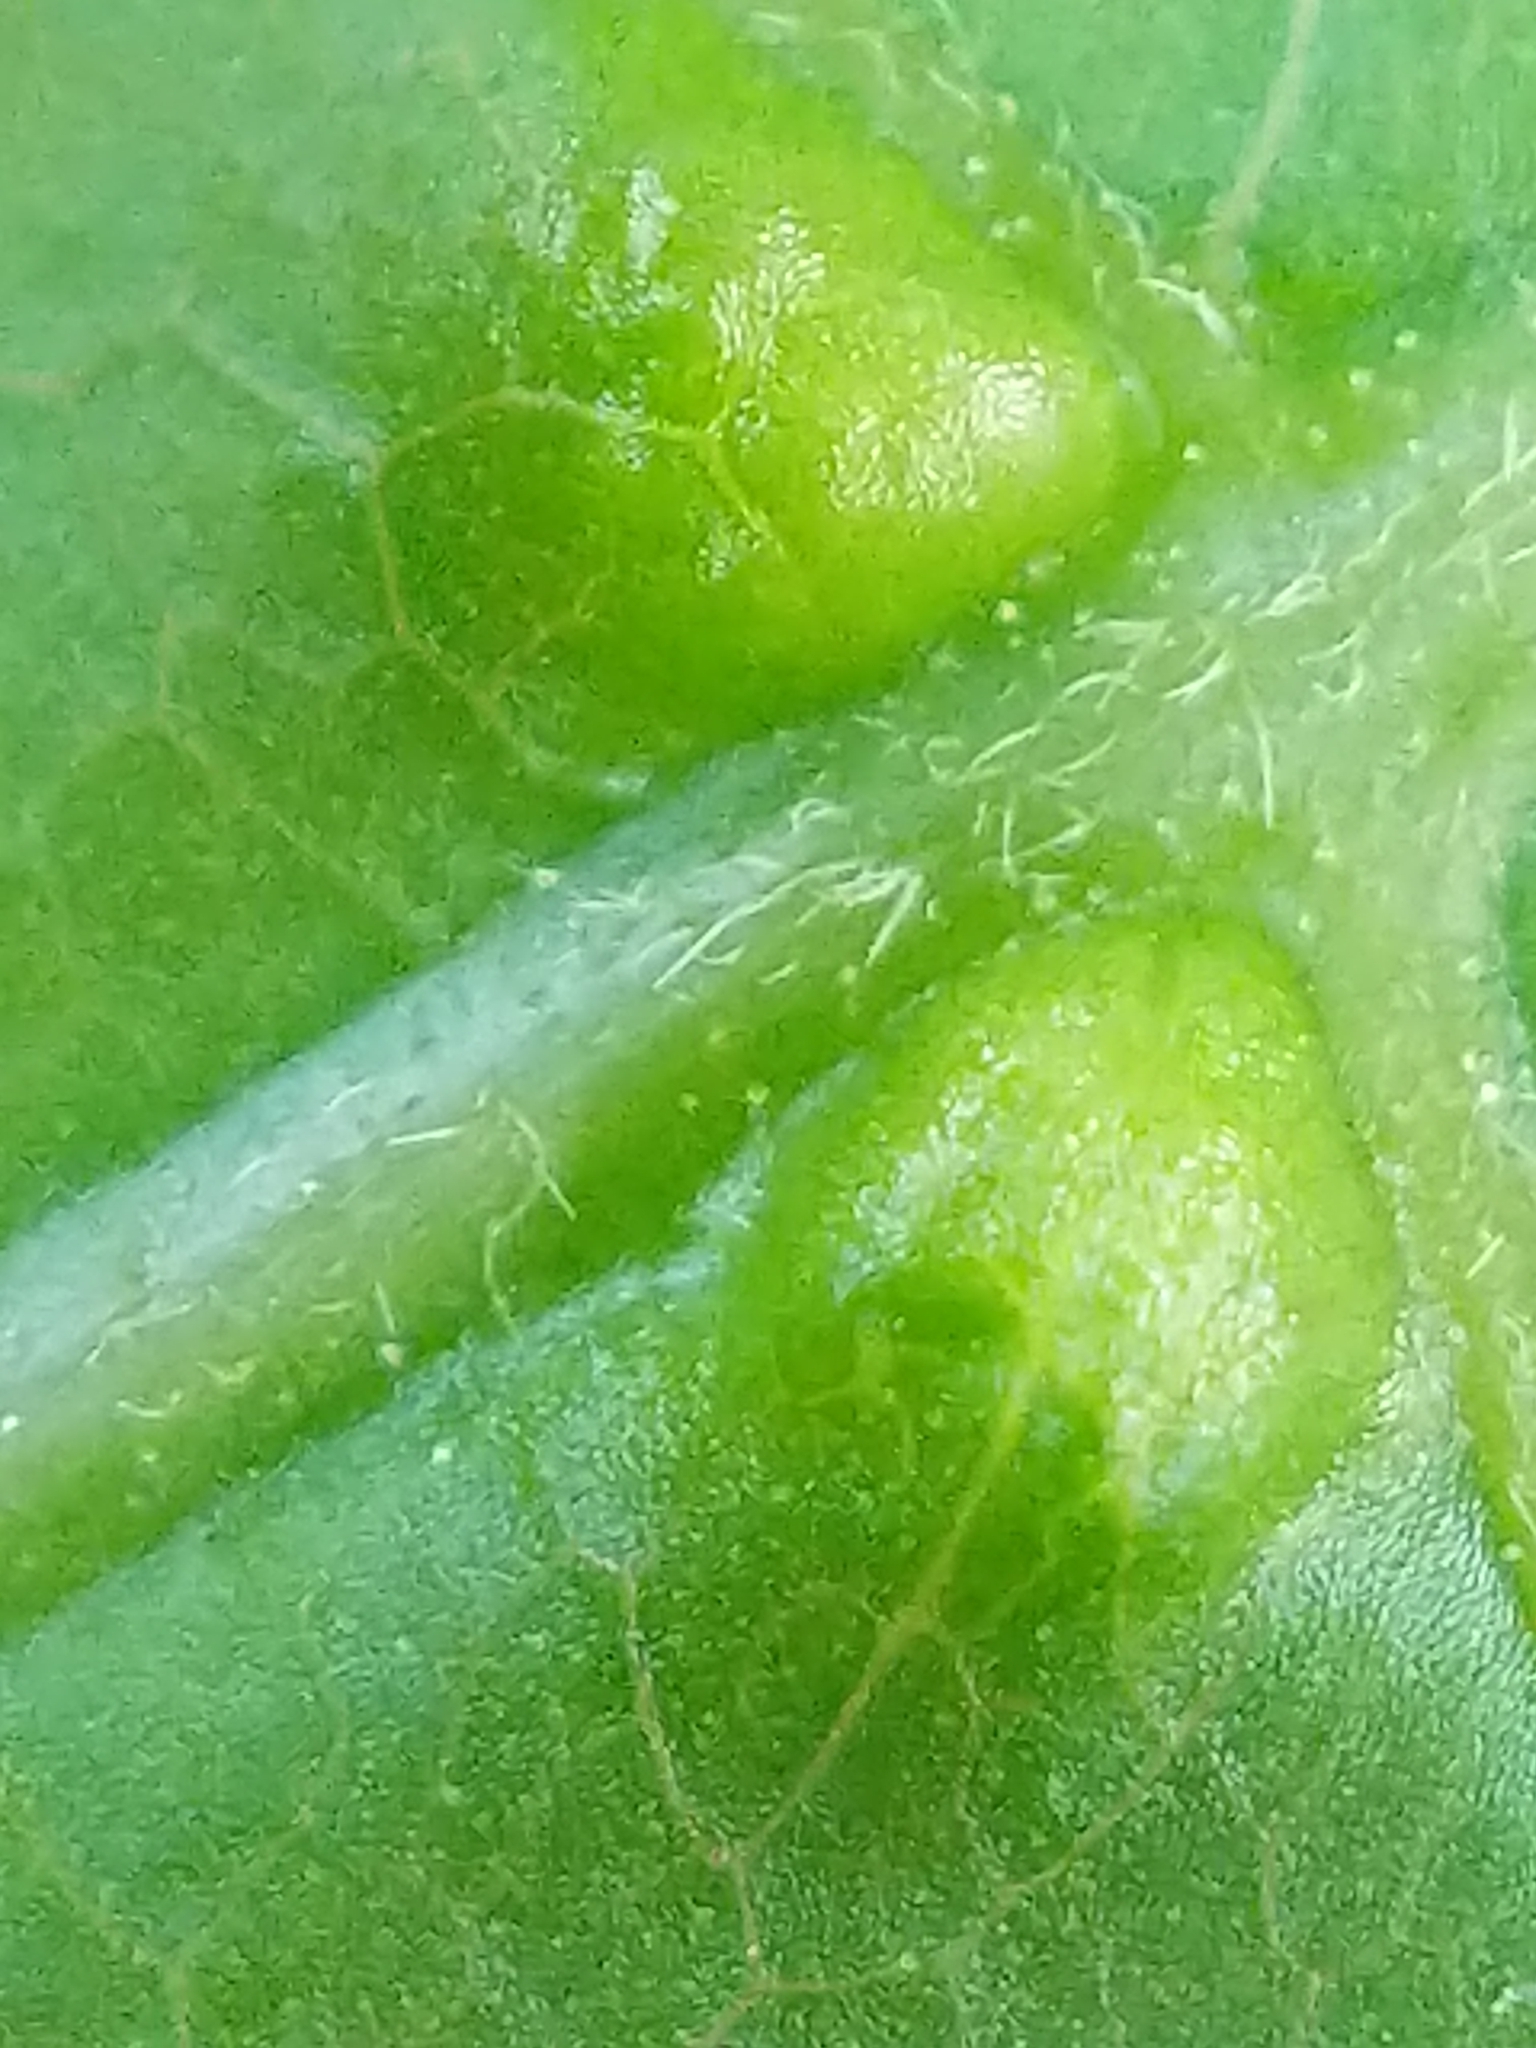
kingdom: Animalia
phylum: Arthropoda
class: Arachnida
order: Trombidiformes
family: Eriophyidae
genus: Aceria
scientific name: Aceria
